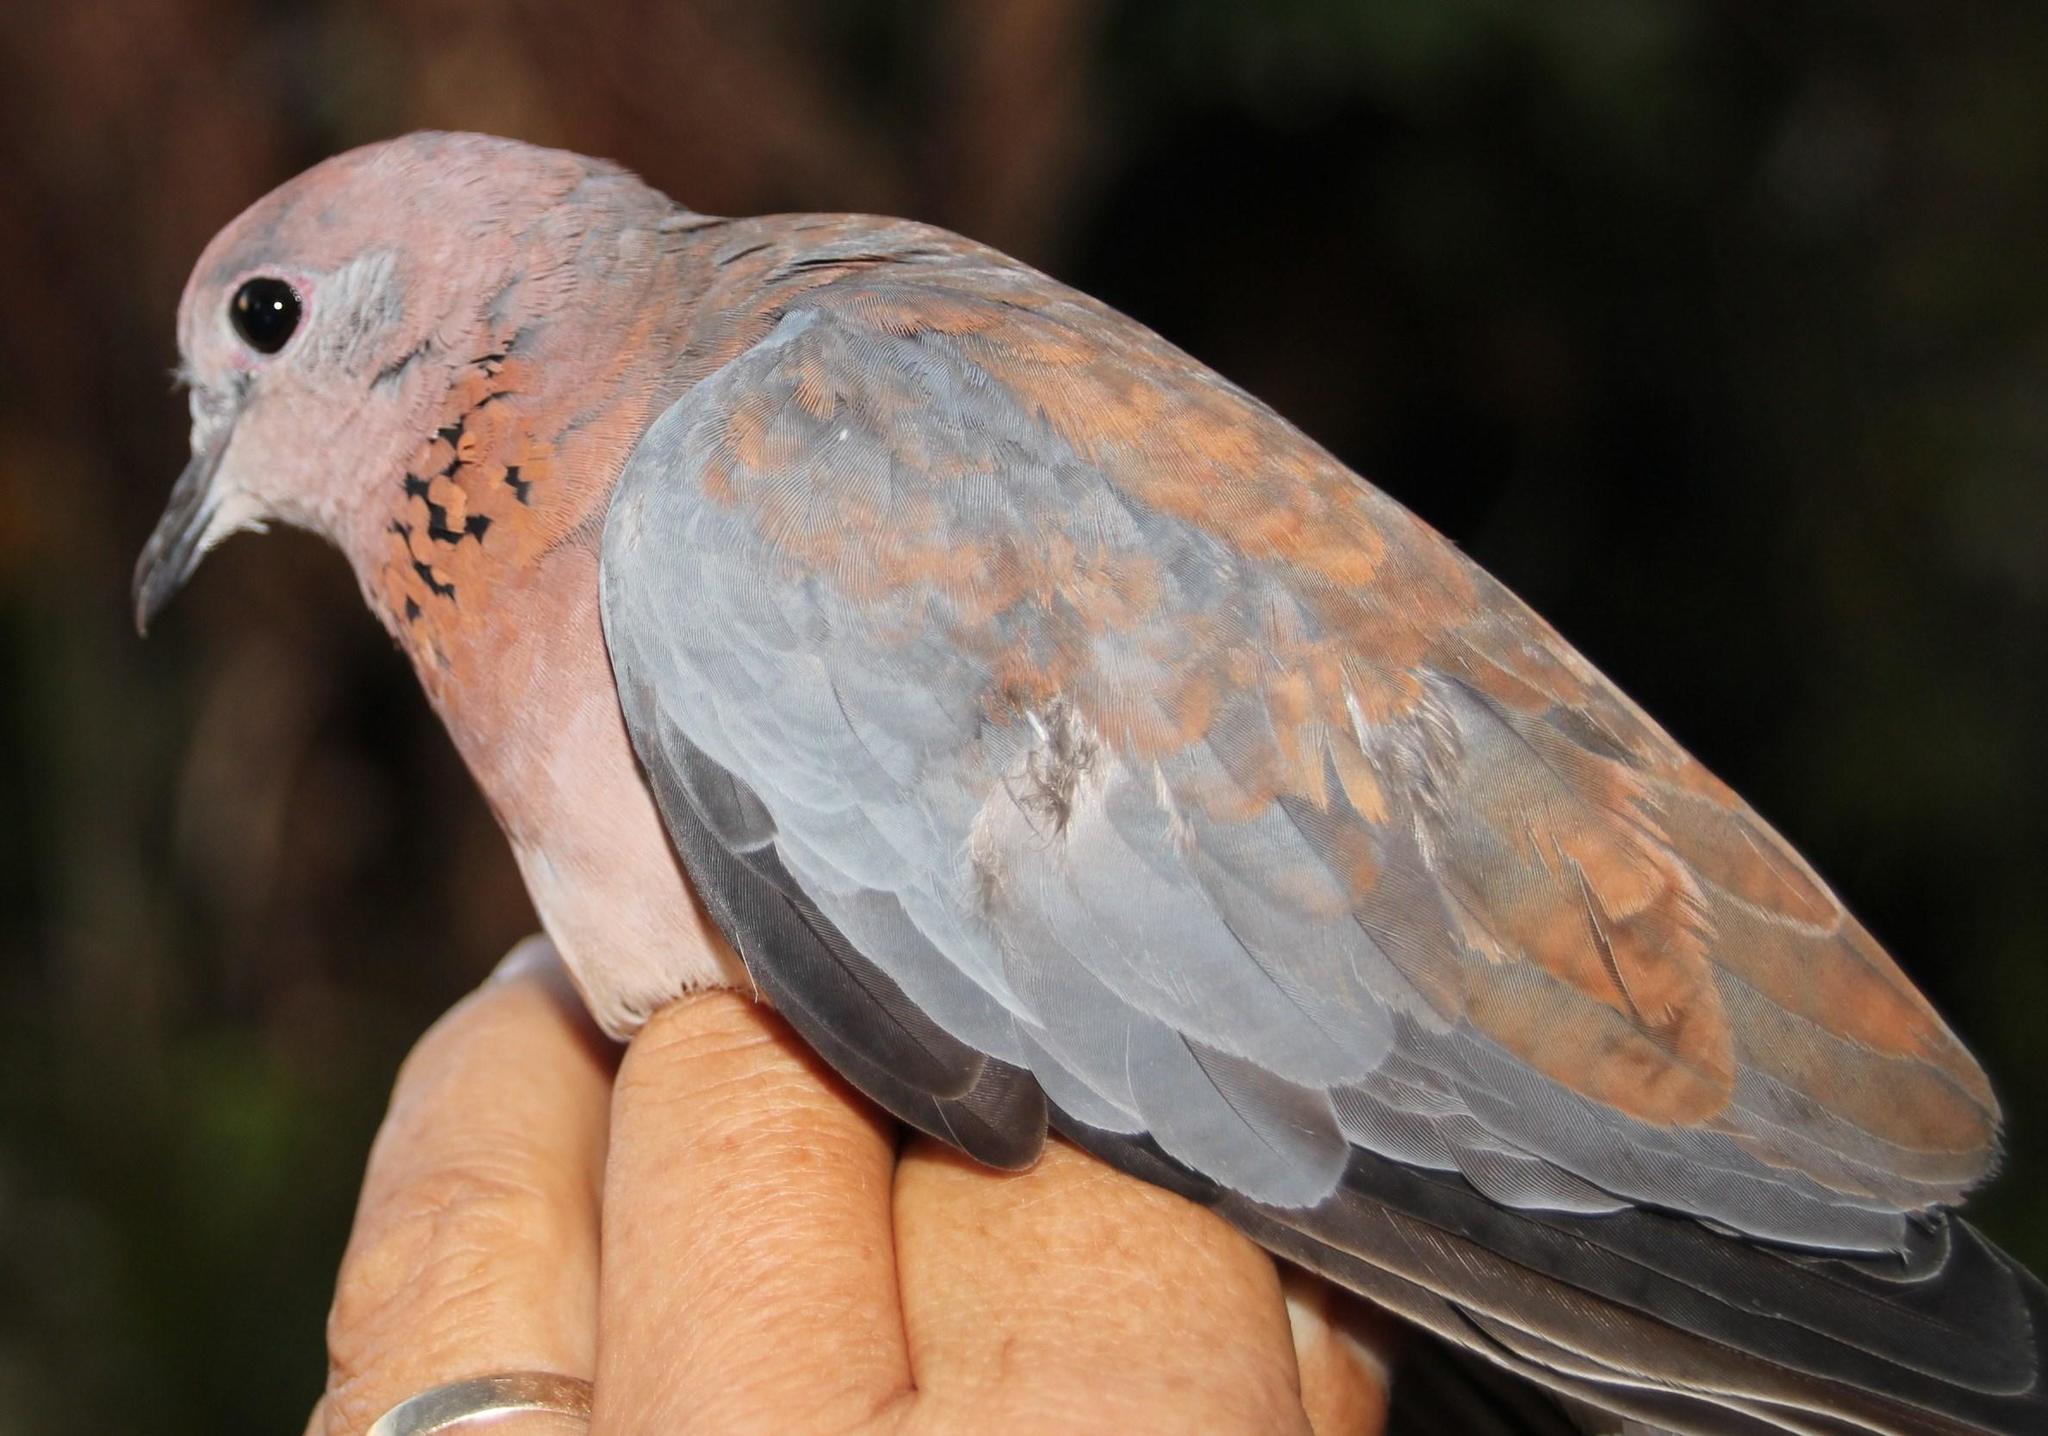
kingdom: Animalia
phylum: Chordata
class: Aves
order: Columbiformes
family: Columbidae
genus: Spilopelia
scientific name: Spilopelia senegalensis
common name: Laughing dove
